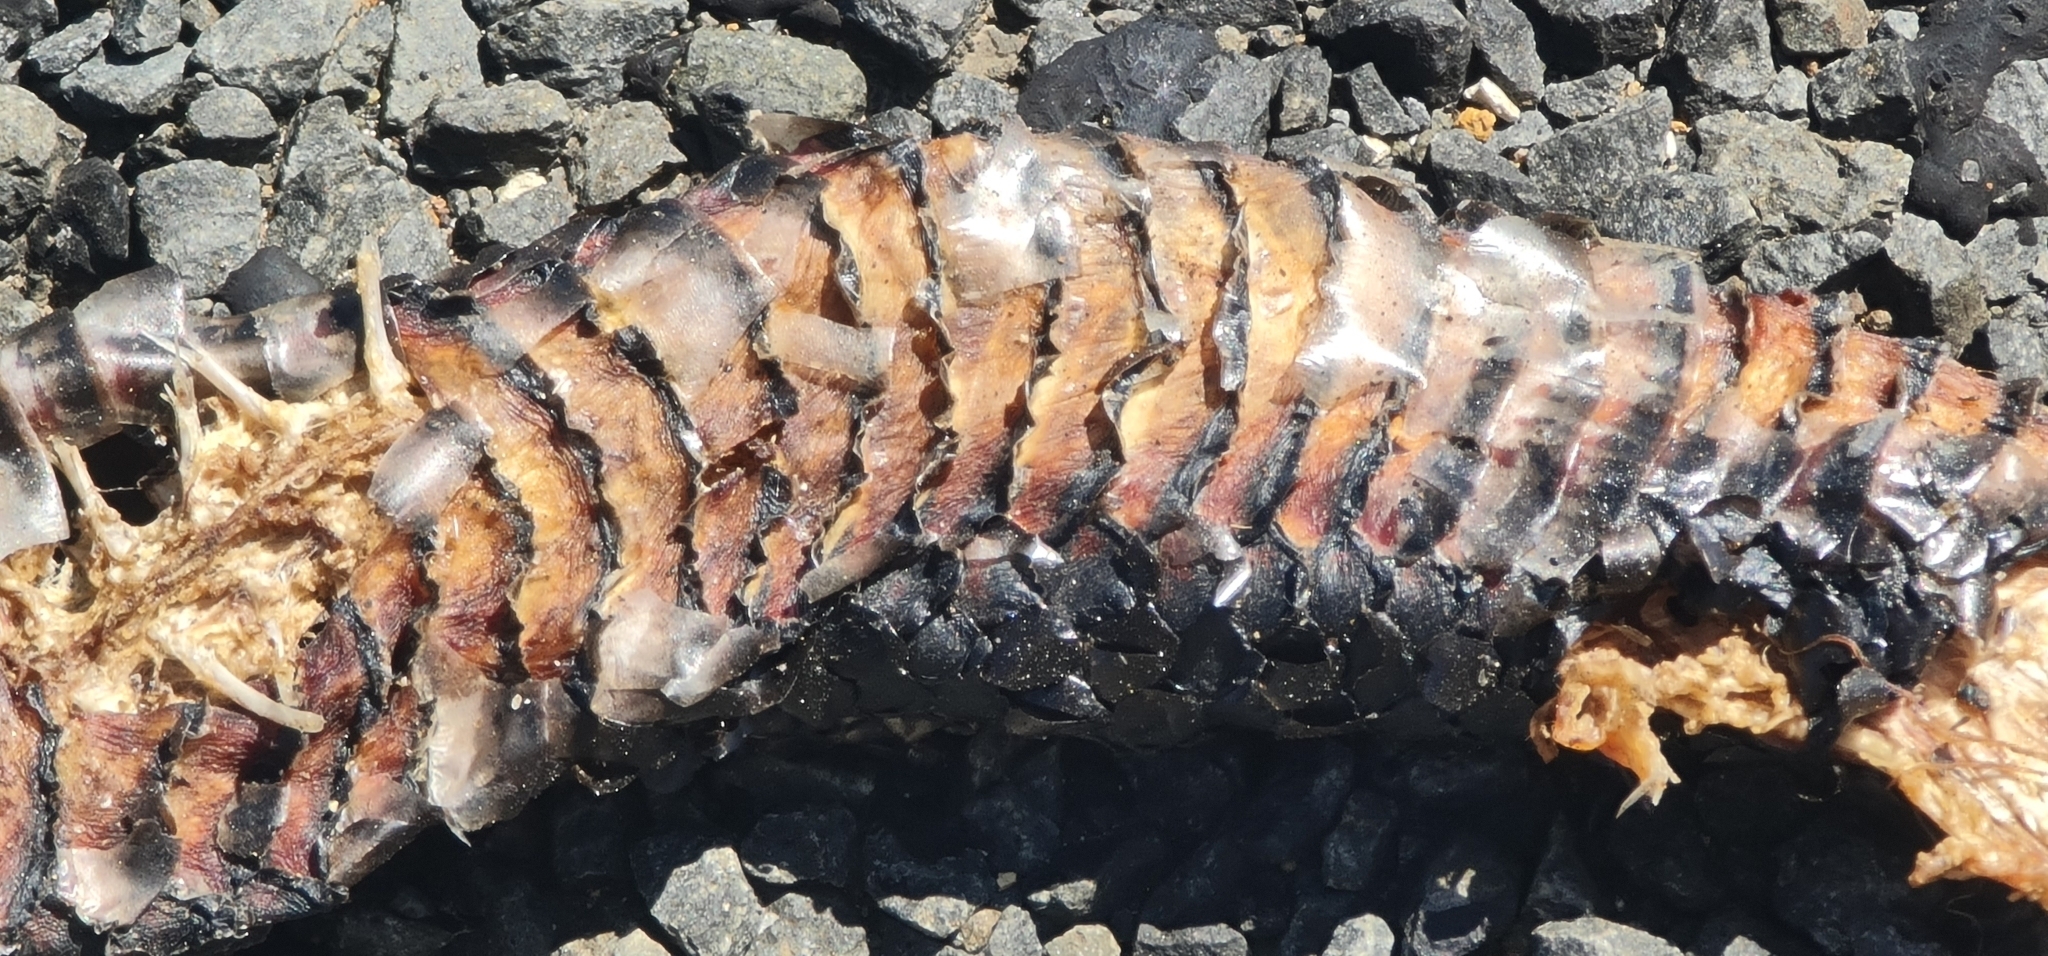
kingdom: Animalia
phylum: Chordata
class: Squamata
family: Elapidae
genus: Pseudechis
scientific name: Pseudechis porphyriacus
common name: Australian black snake
